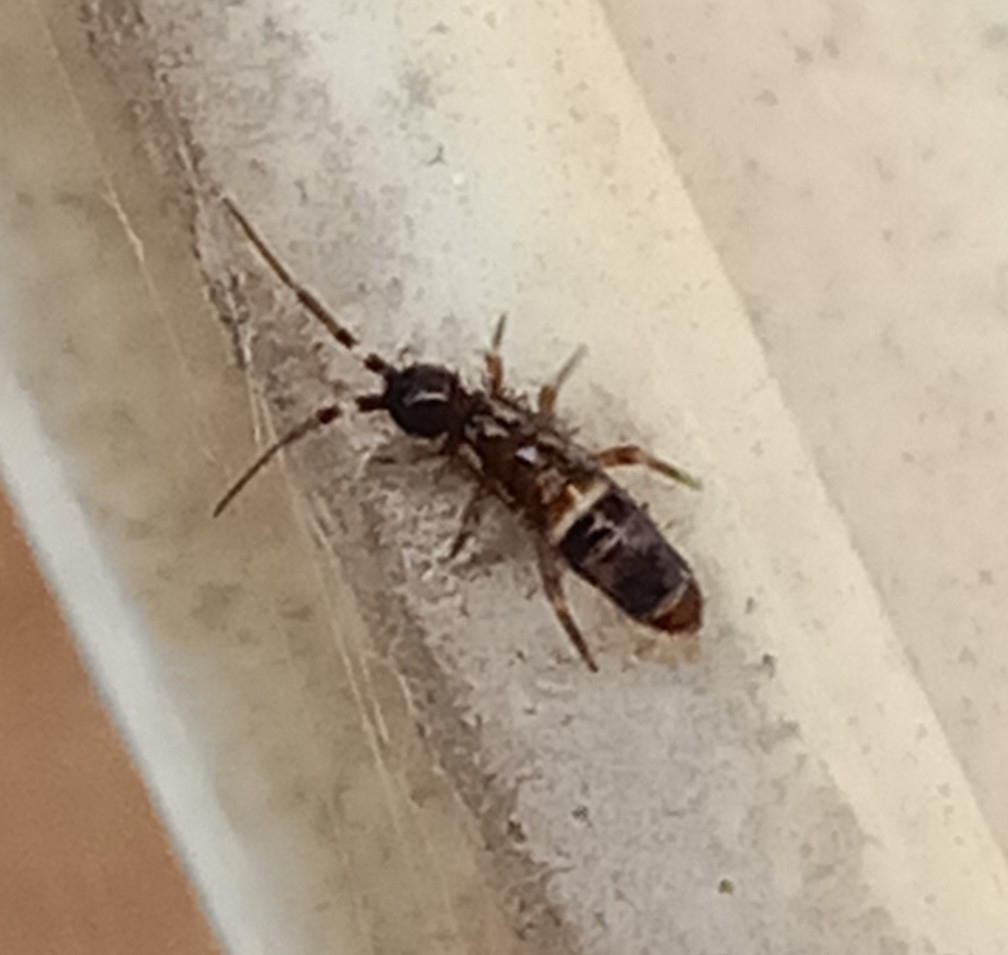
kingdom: Animalia
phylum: Arthropoda
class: Collembola
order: Entomobryomorpha
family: Orchesellidae
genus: Orchesella
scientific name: Orchesella cincta
